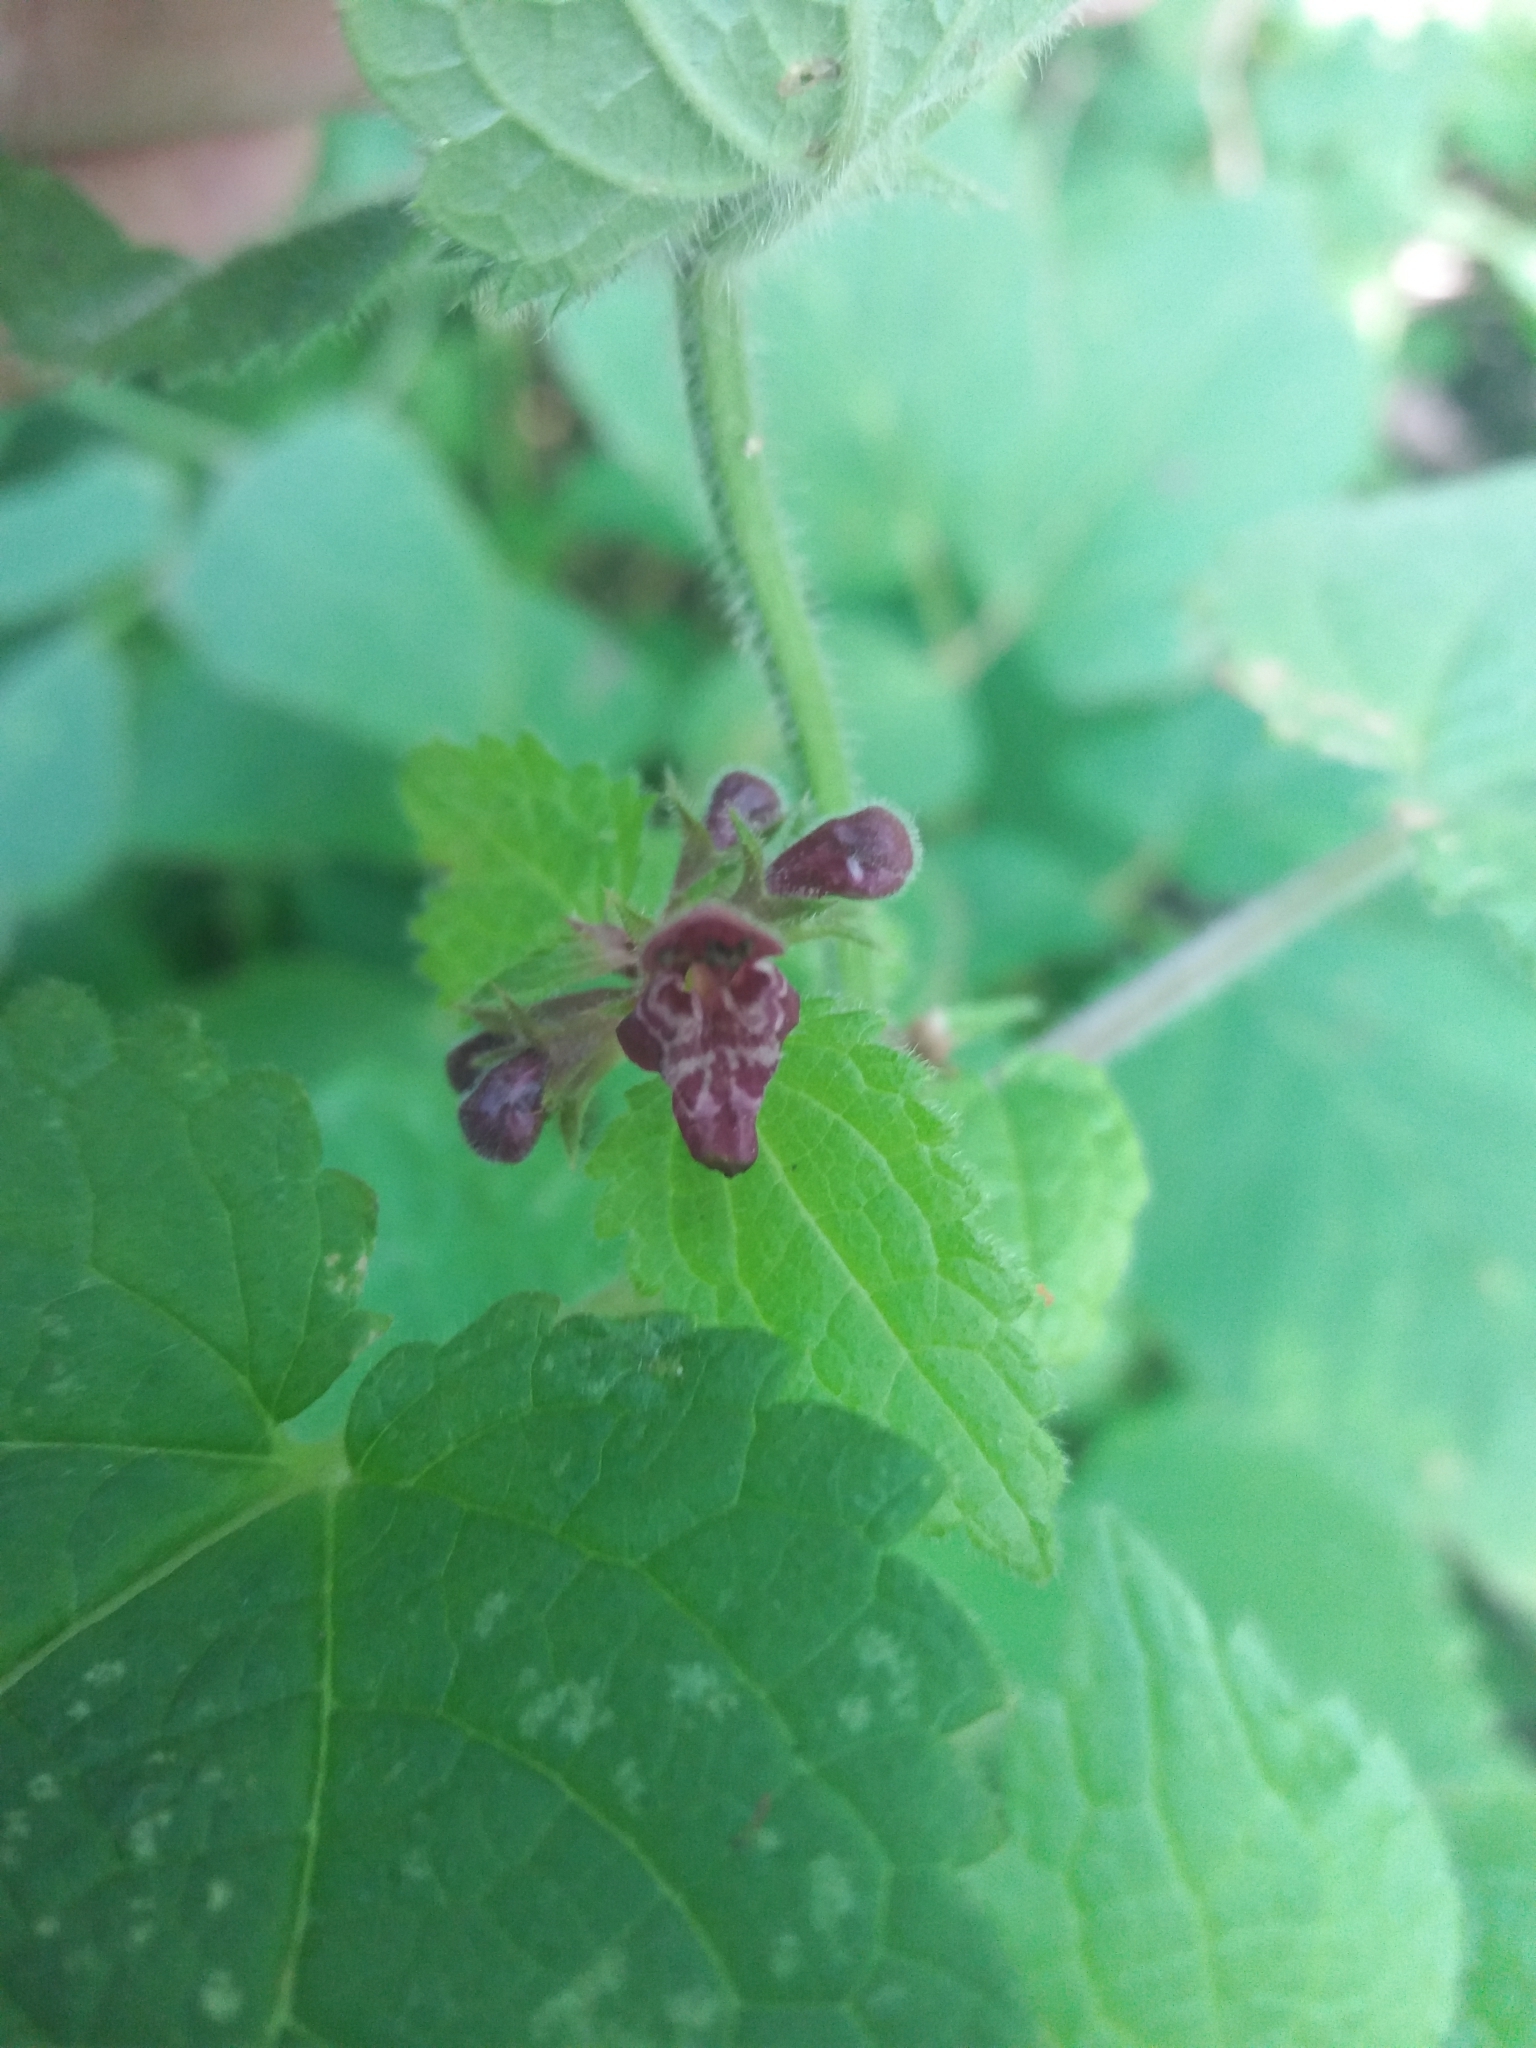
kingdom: Plantae
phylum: Tracheophyta
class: Magnoliopsida
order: Lamiales
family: Lamiaceae
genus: Stachys
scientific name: Stachys sylvatica
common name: Hedge woundwort
